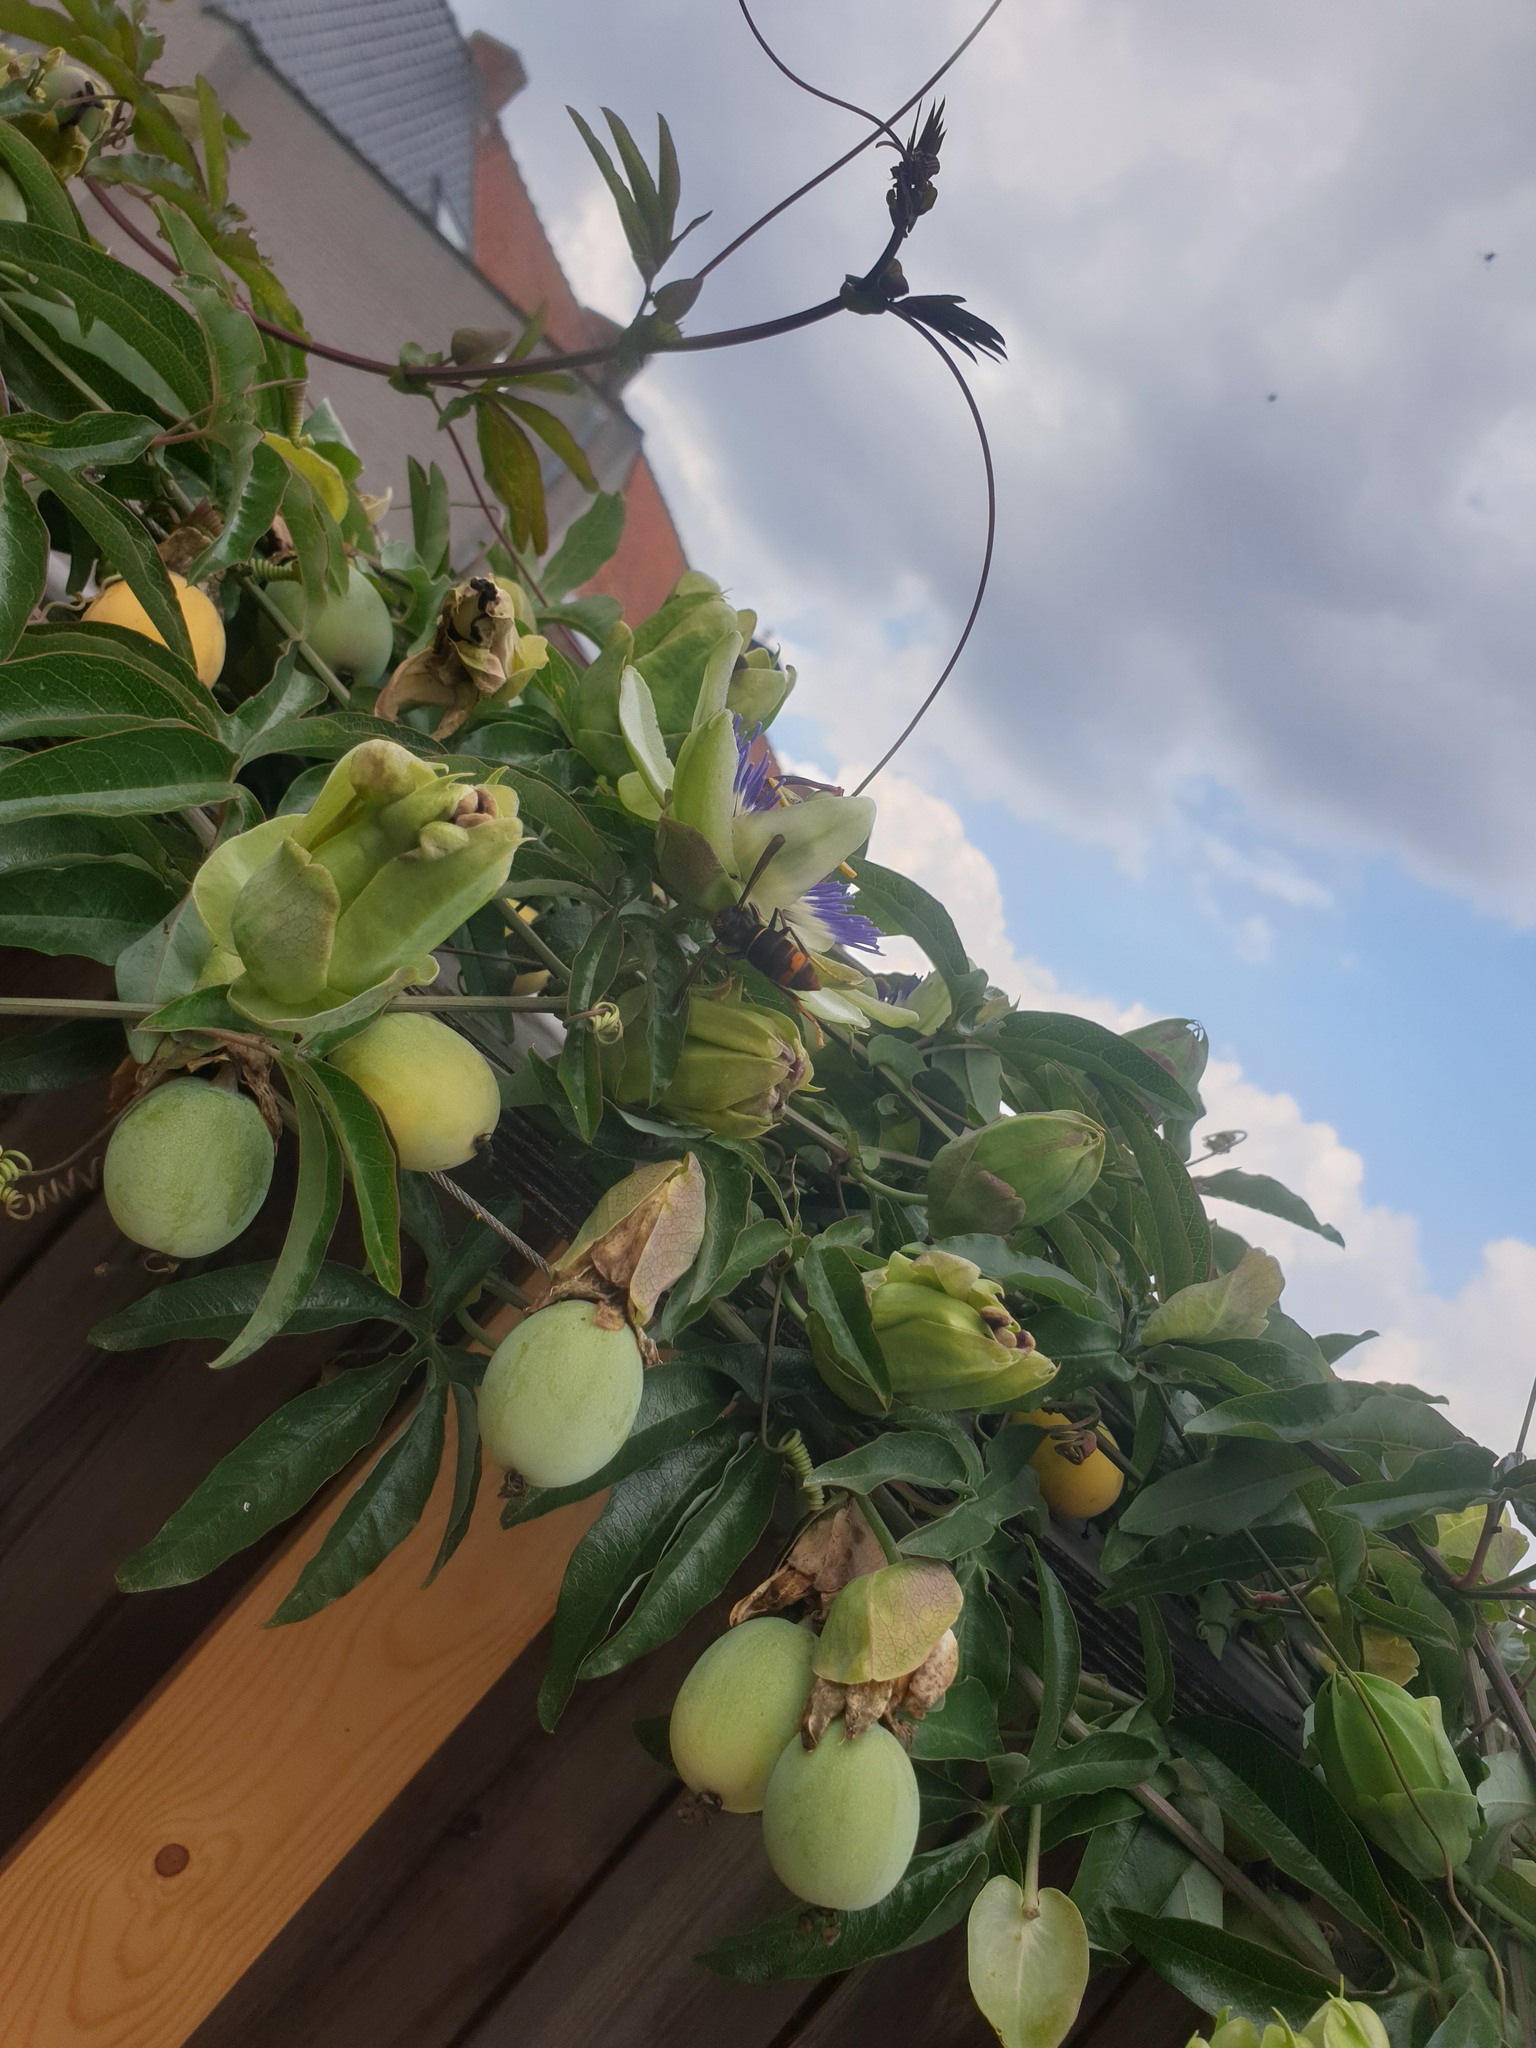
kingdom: Animalia
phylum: Arthropoda
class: Insecta
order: Hymenoptera
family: Vespidae
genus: Vespa
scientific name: Vespa velutina
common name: Asian hornet
